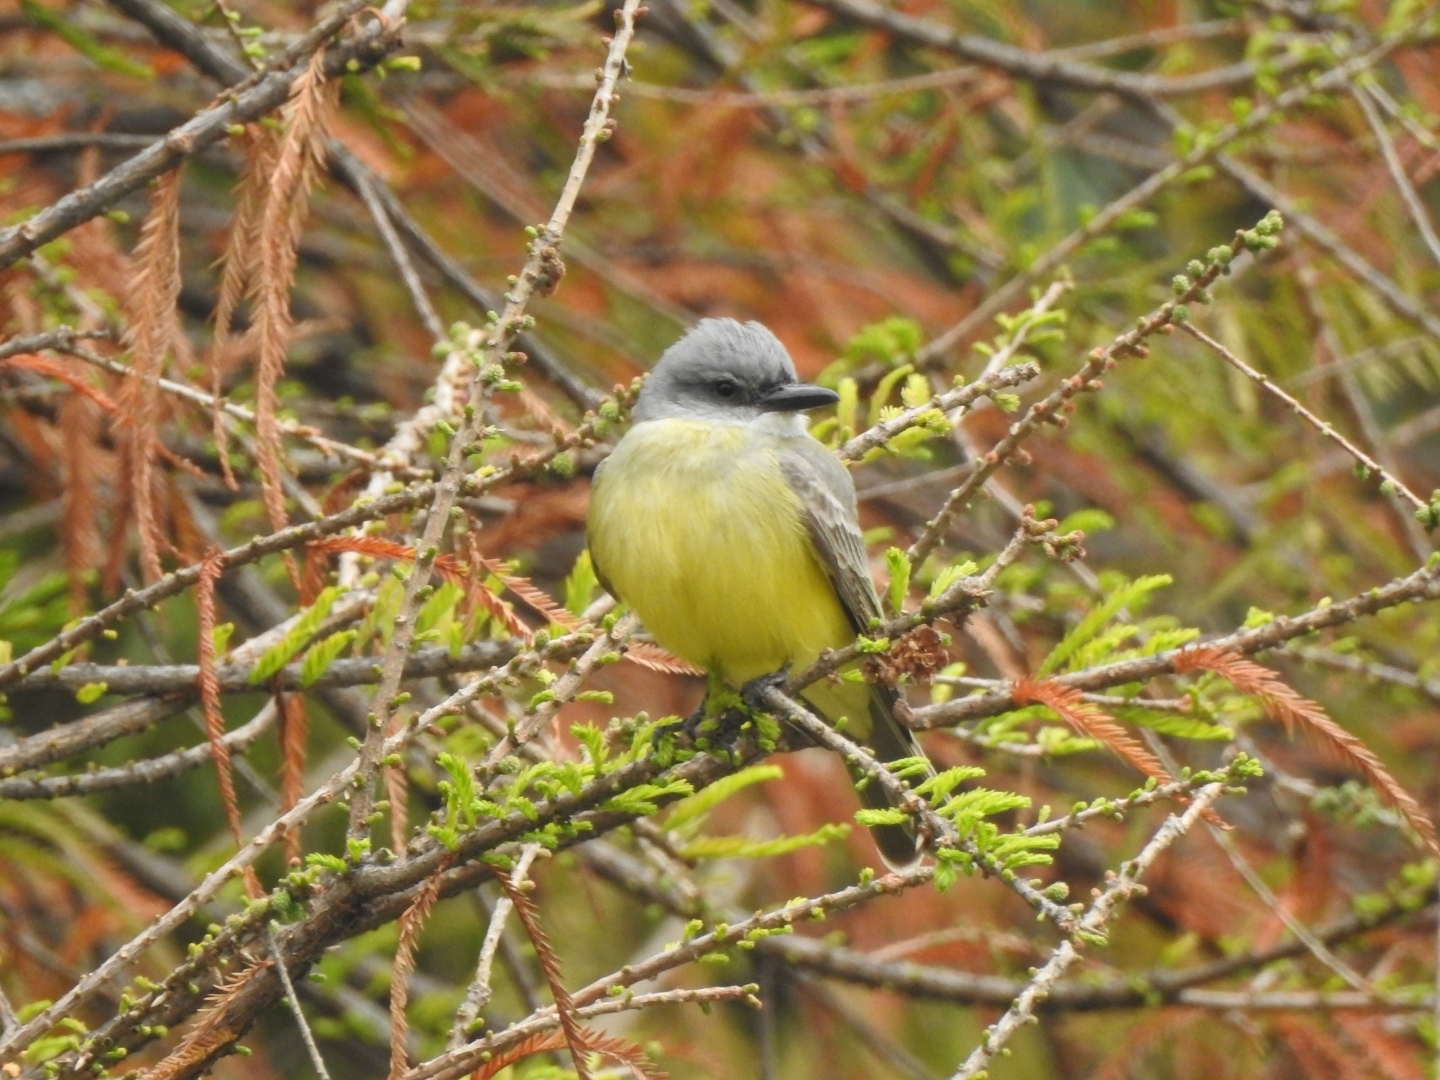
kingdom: Animalia
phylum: Chordata
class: Aves
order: Passeriformes
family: Tyrannidae
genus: Tyrannus
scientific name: Tyrannus melancholicus
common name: Tropical kingbird
